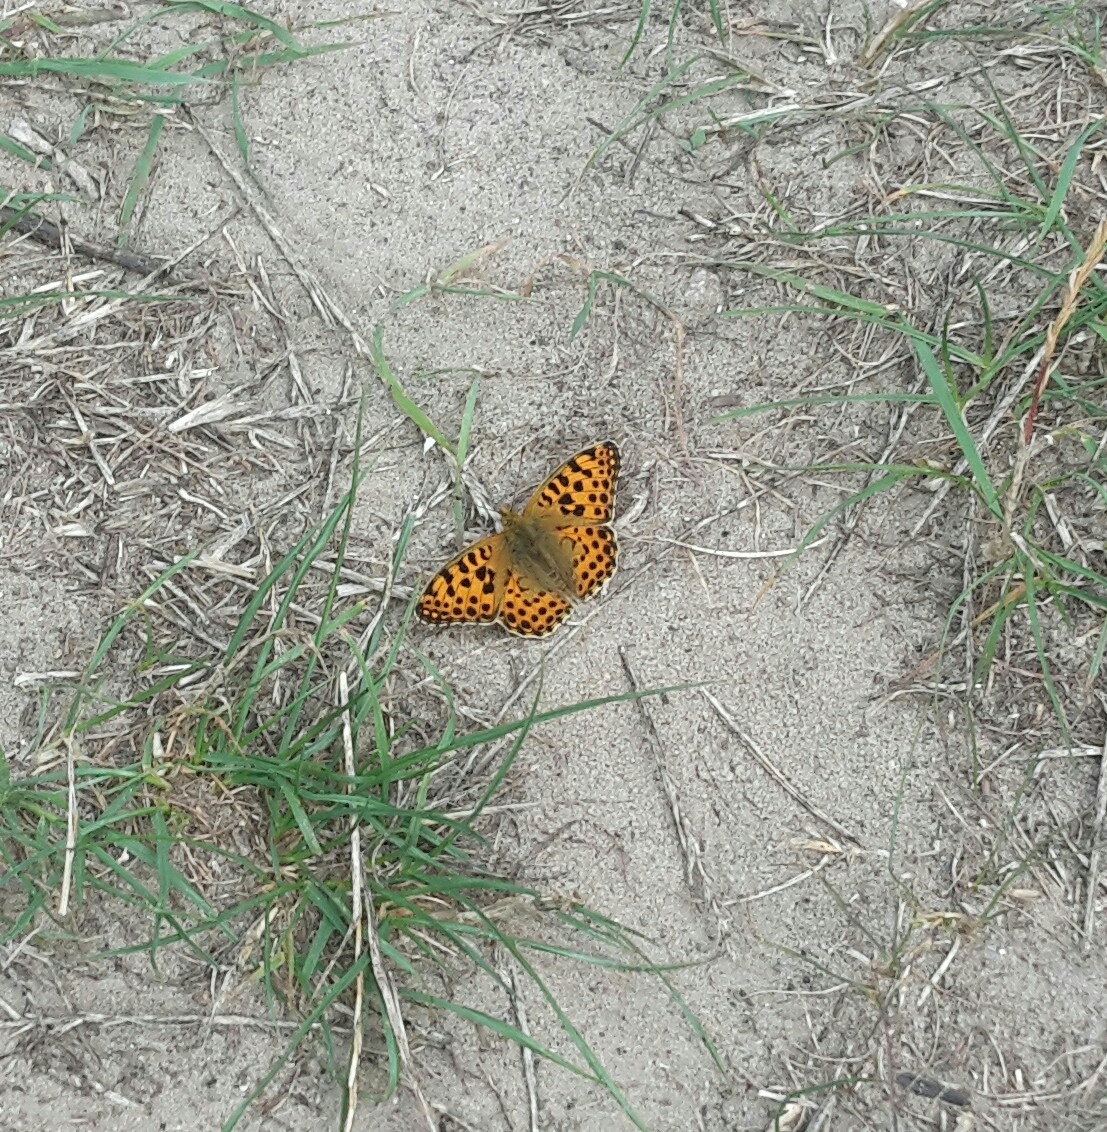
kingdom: Animalia
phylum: Arthropoda
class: Insecta
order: Lepidoptera
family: Nymphalidae
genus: Issoria
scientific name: Issoria lathonia
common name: Queen of spain fritillary
